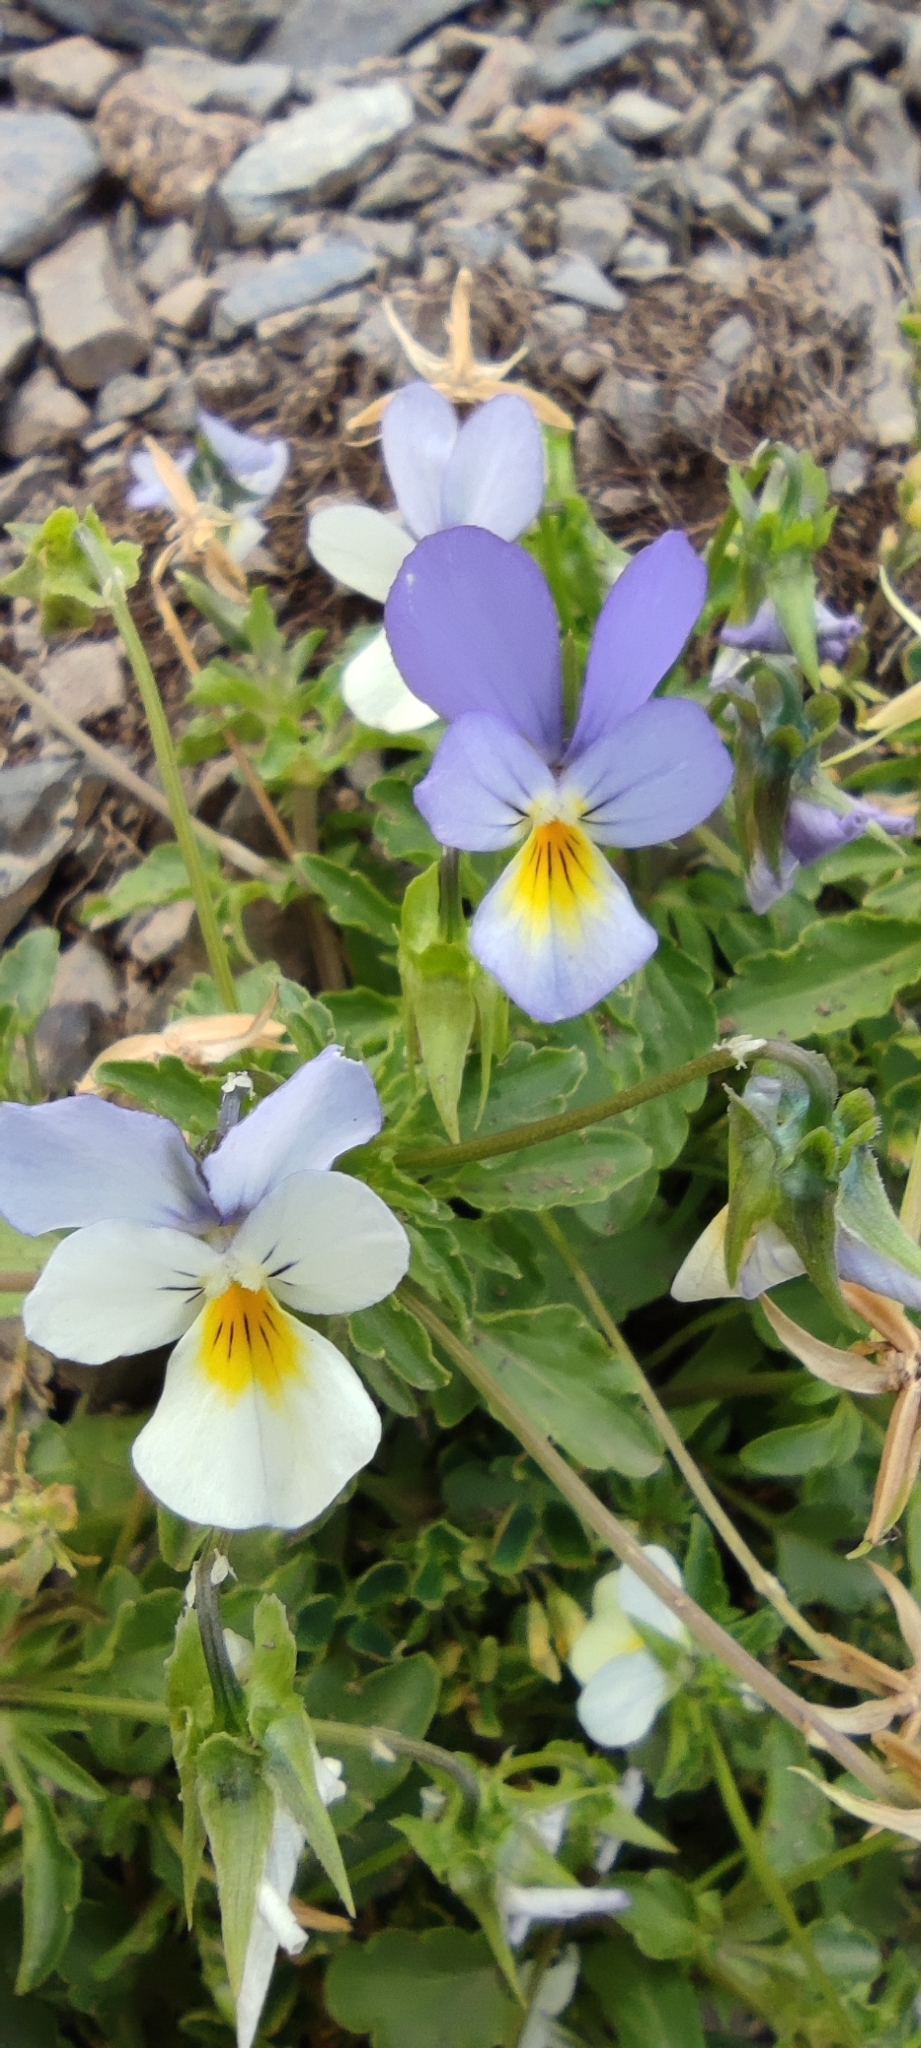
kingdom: Plantae
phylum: Tracheophyta
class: Magnoliopsida
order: Malpighiales
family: Violaceae
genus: Viola
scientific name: Viola tricolor
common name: Pansy
